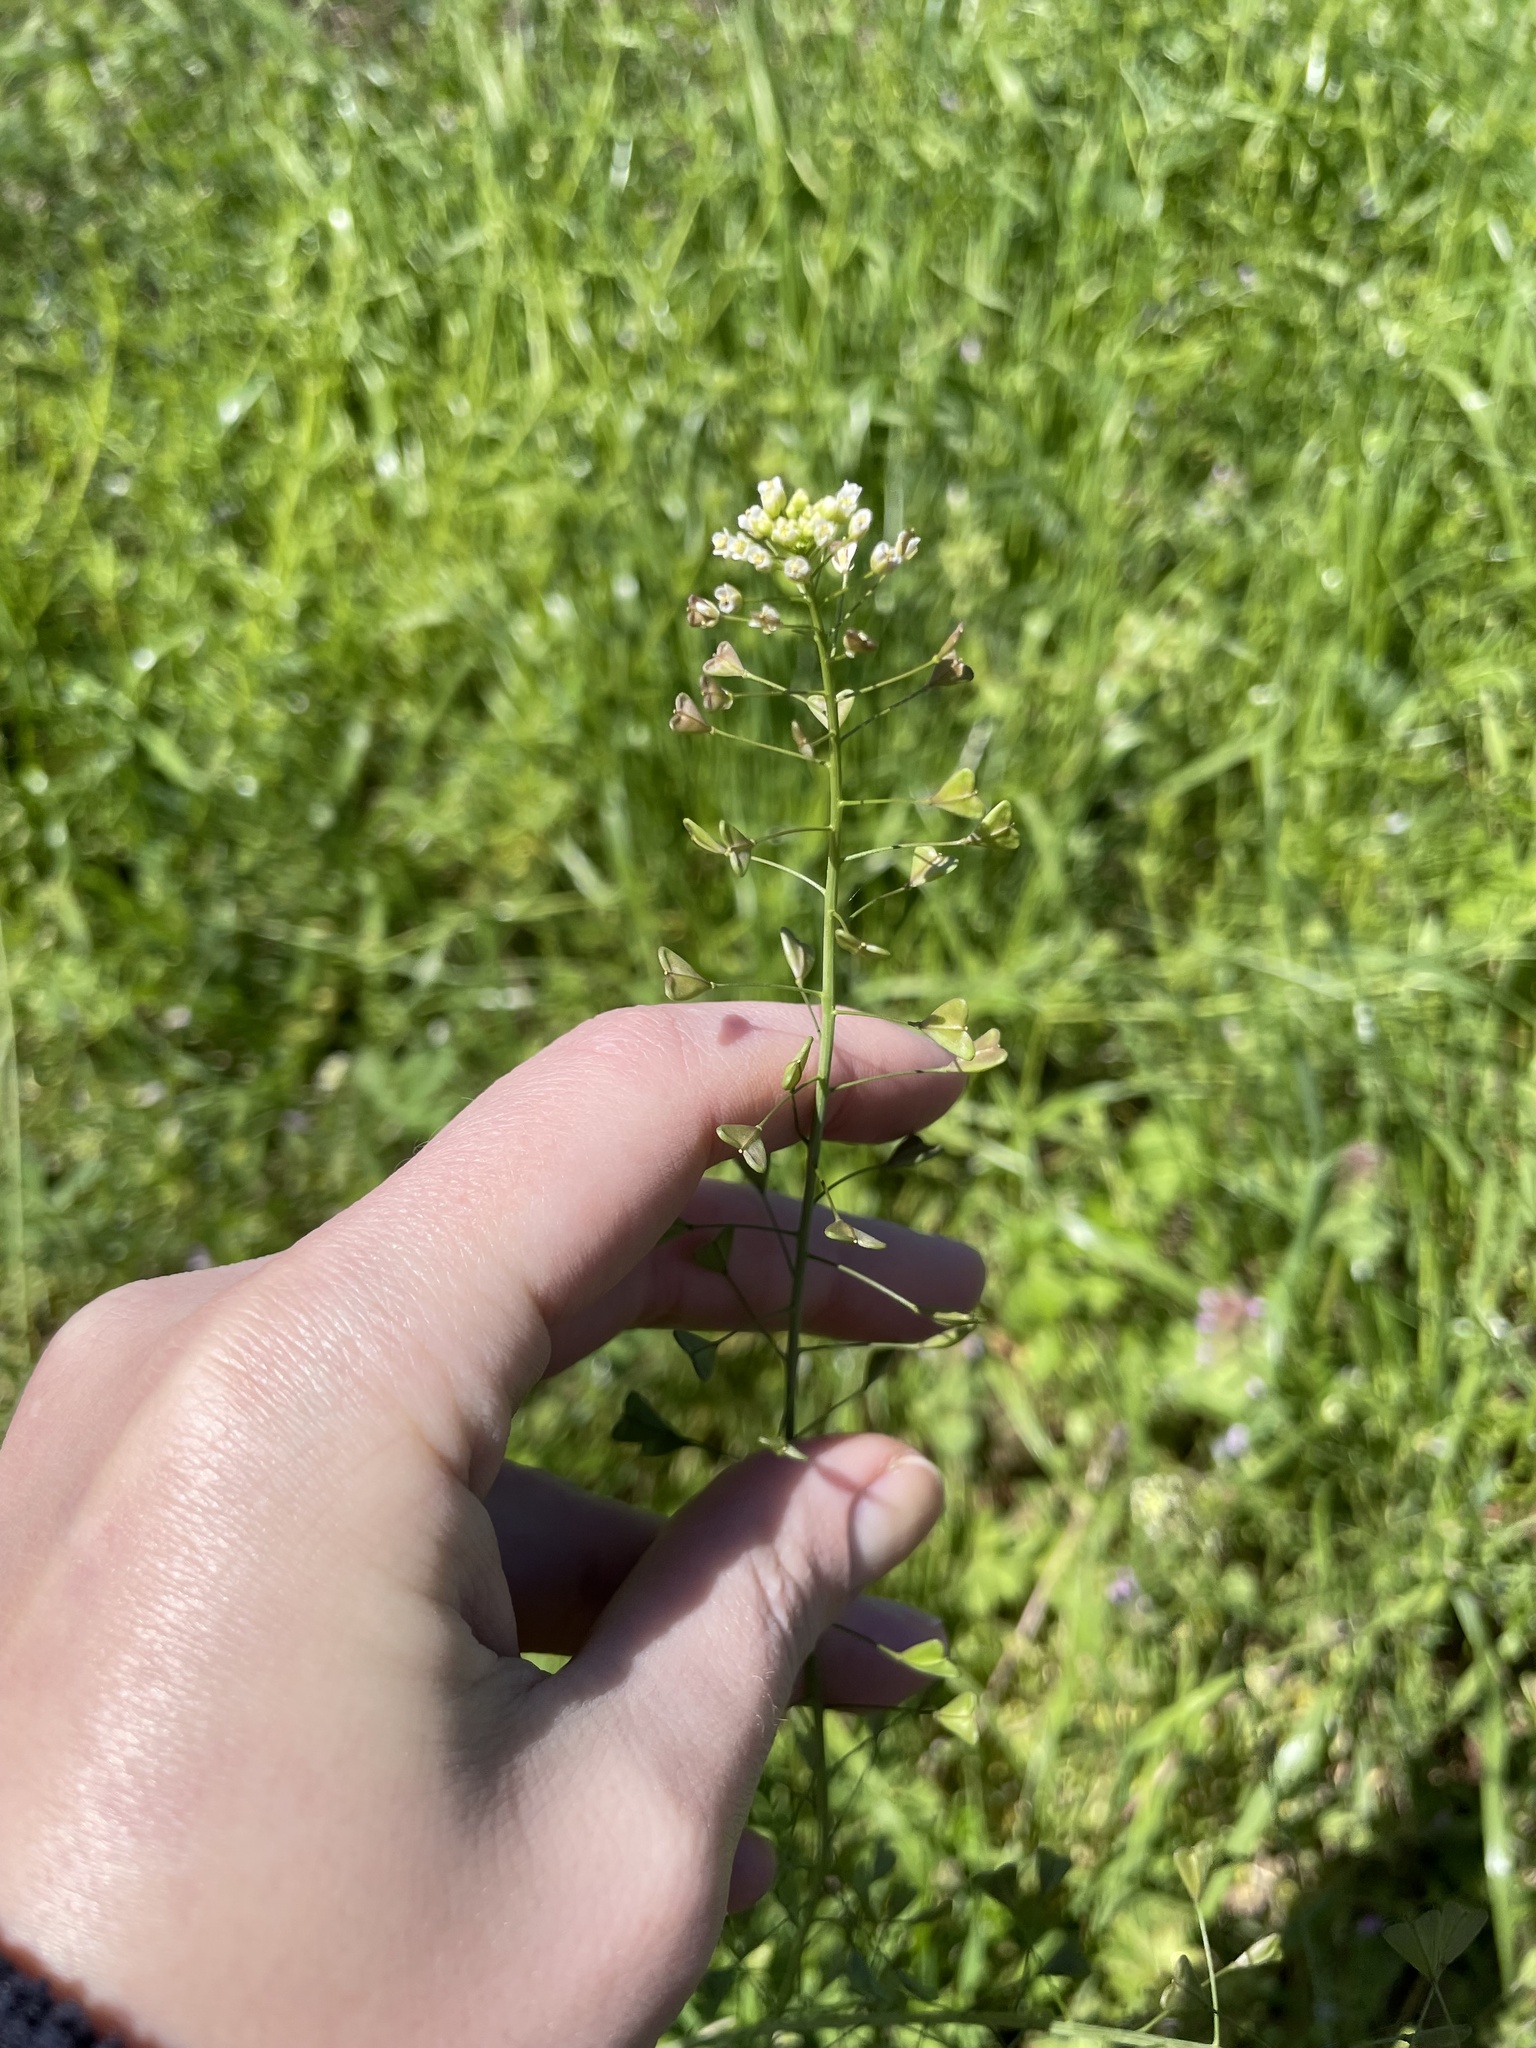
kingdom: Plantae
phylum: Tracheophyta
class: Magnoliopsida
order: Brassicales
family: Brassicaceae
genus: Capsella
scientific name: Capsella bursa-pastoris
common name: Shepherd's purse
